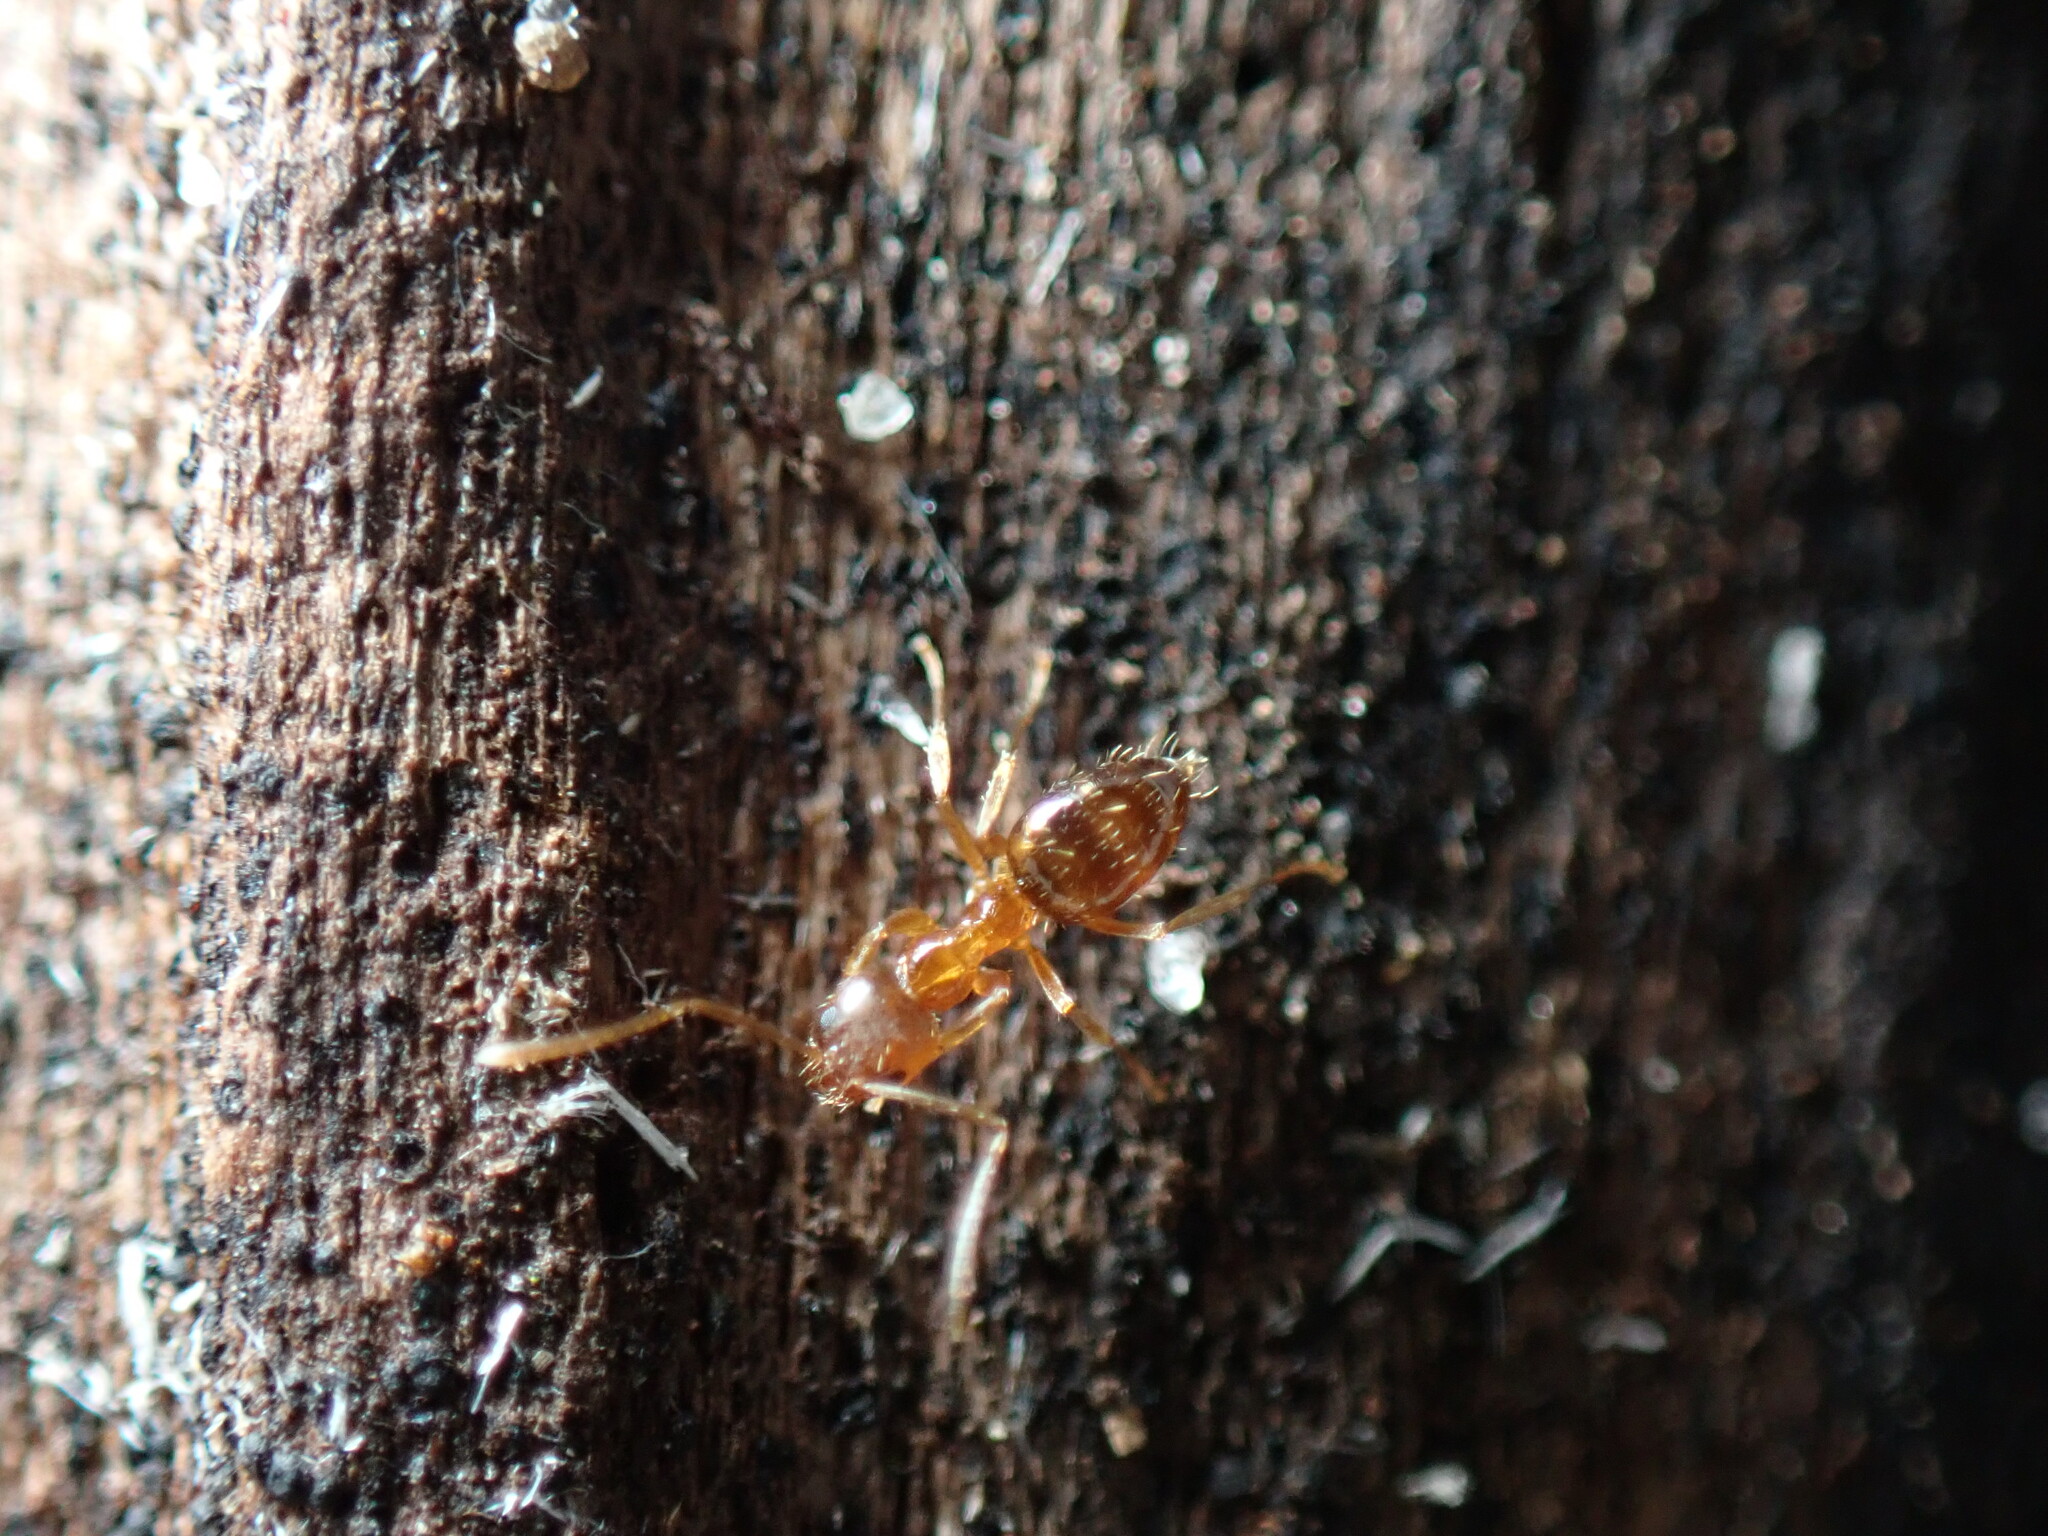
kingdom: Animalia
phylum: Arthropoda
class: Insecta
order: Hymenoptera
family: Formicidae
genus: Paratrechina
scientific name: Paratrechina flavipes
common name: Eastern asian formicine ant
